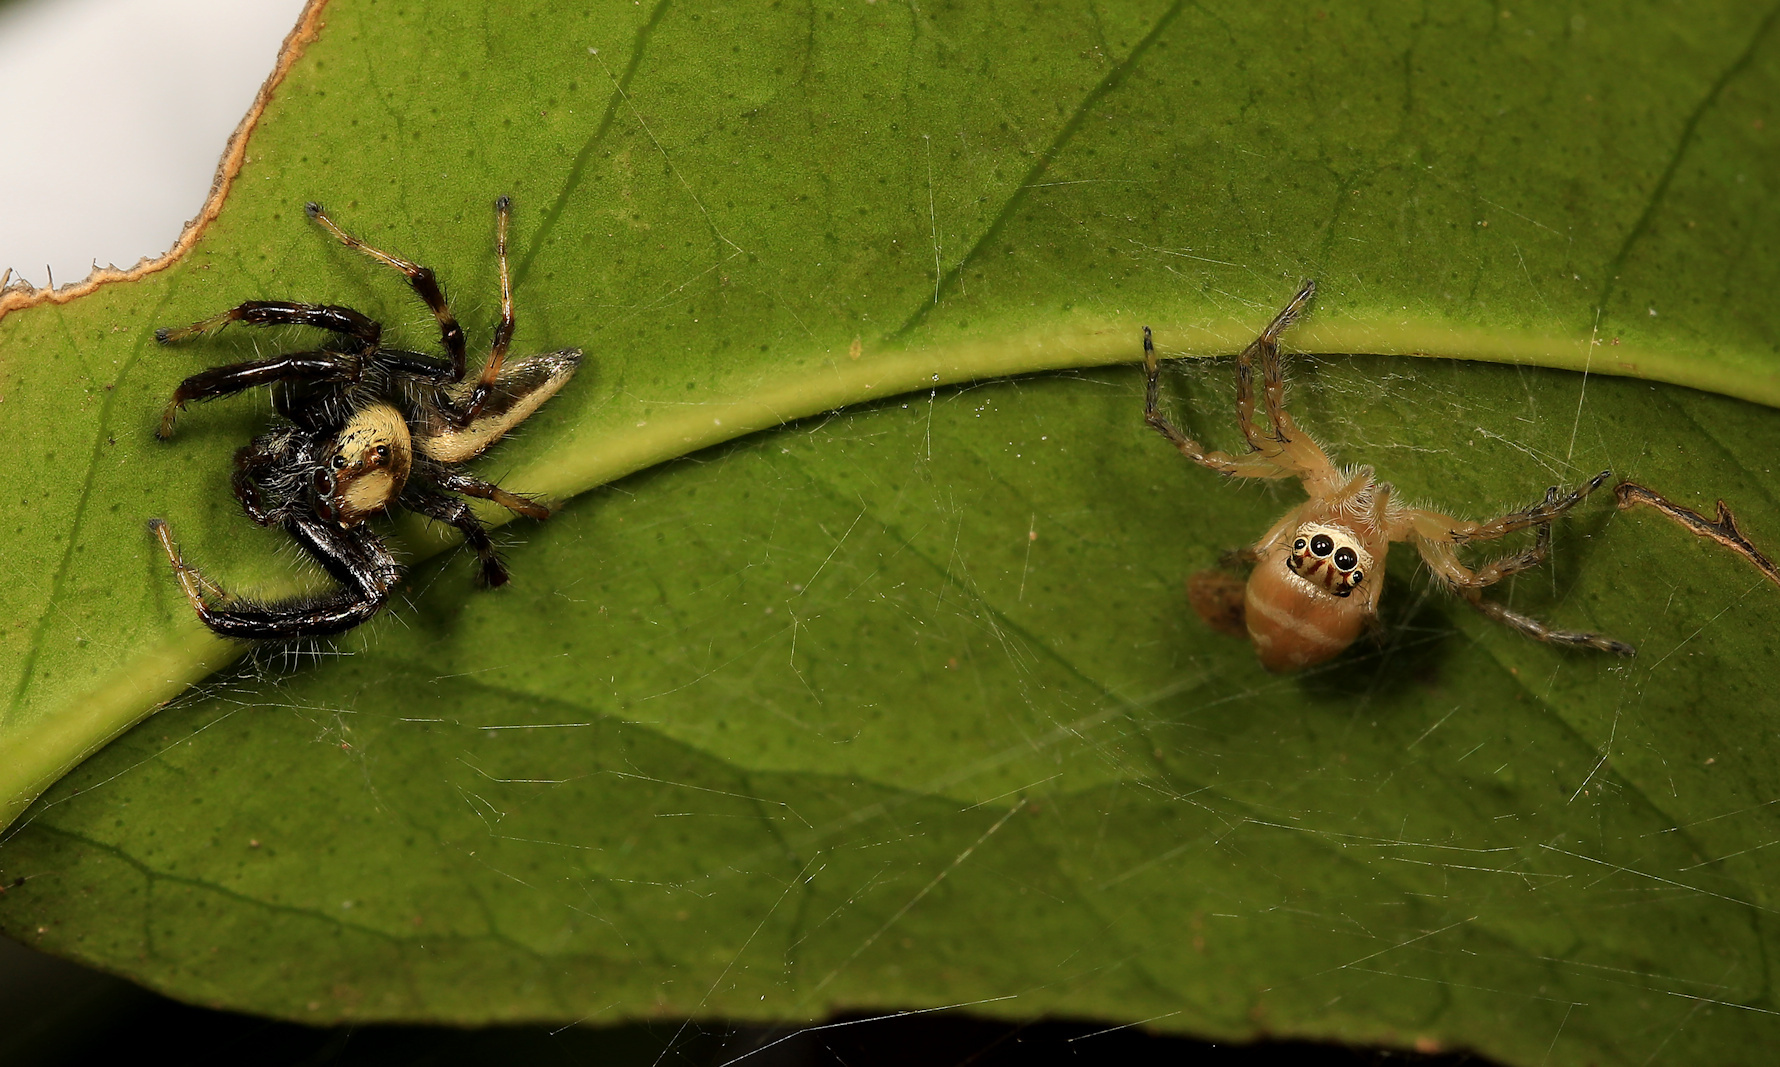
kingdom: Animalia
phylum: Arthropoda
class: Arachnida
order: Araneae
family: Salticidae
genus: Brancus
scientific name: Brancus mustelus
